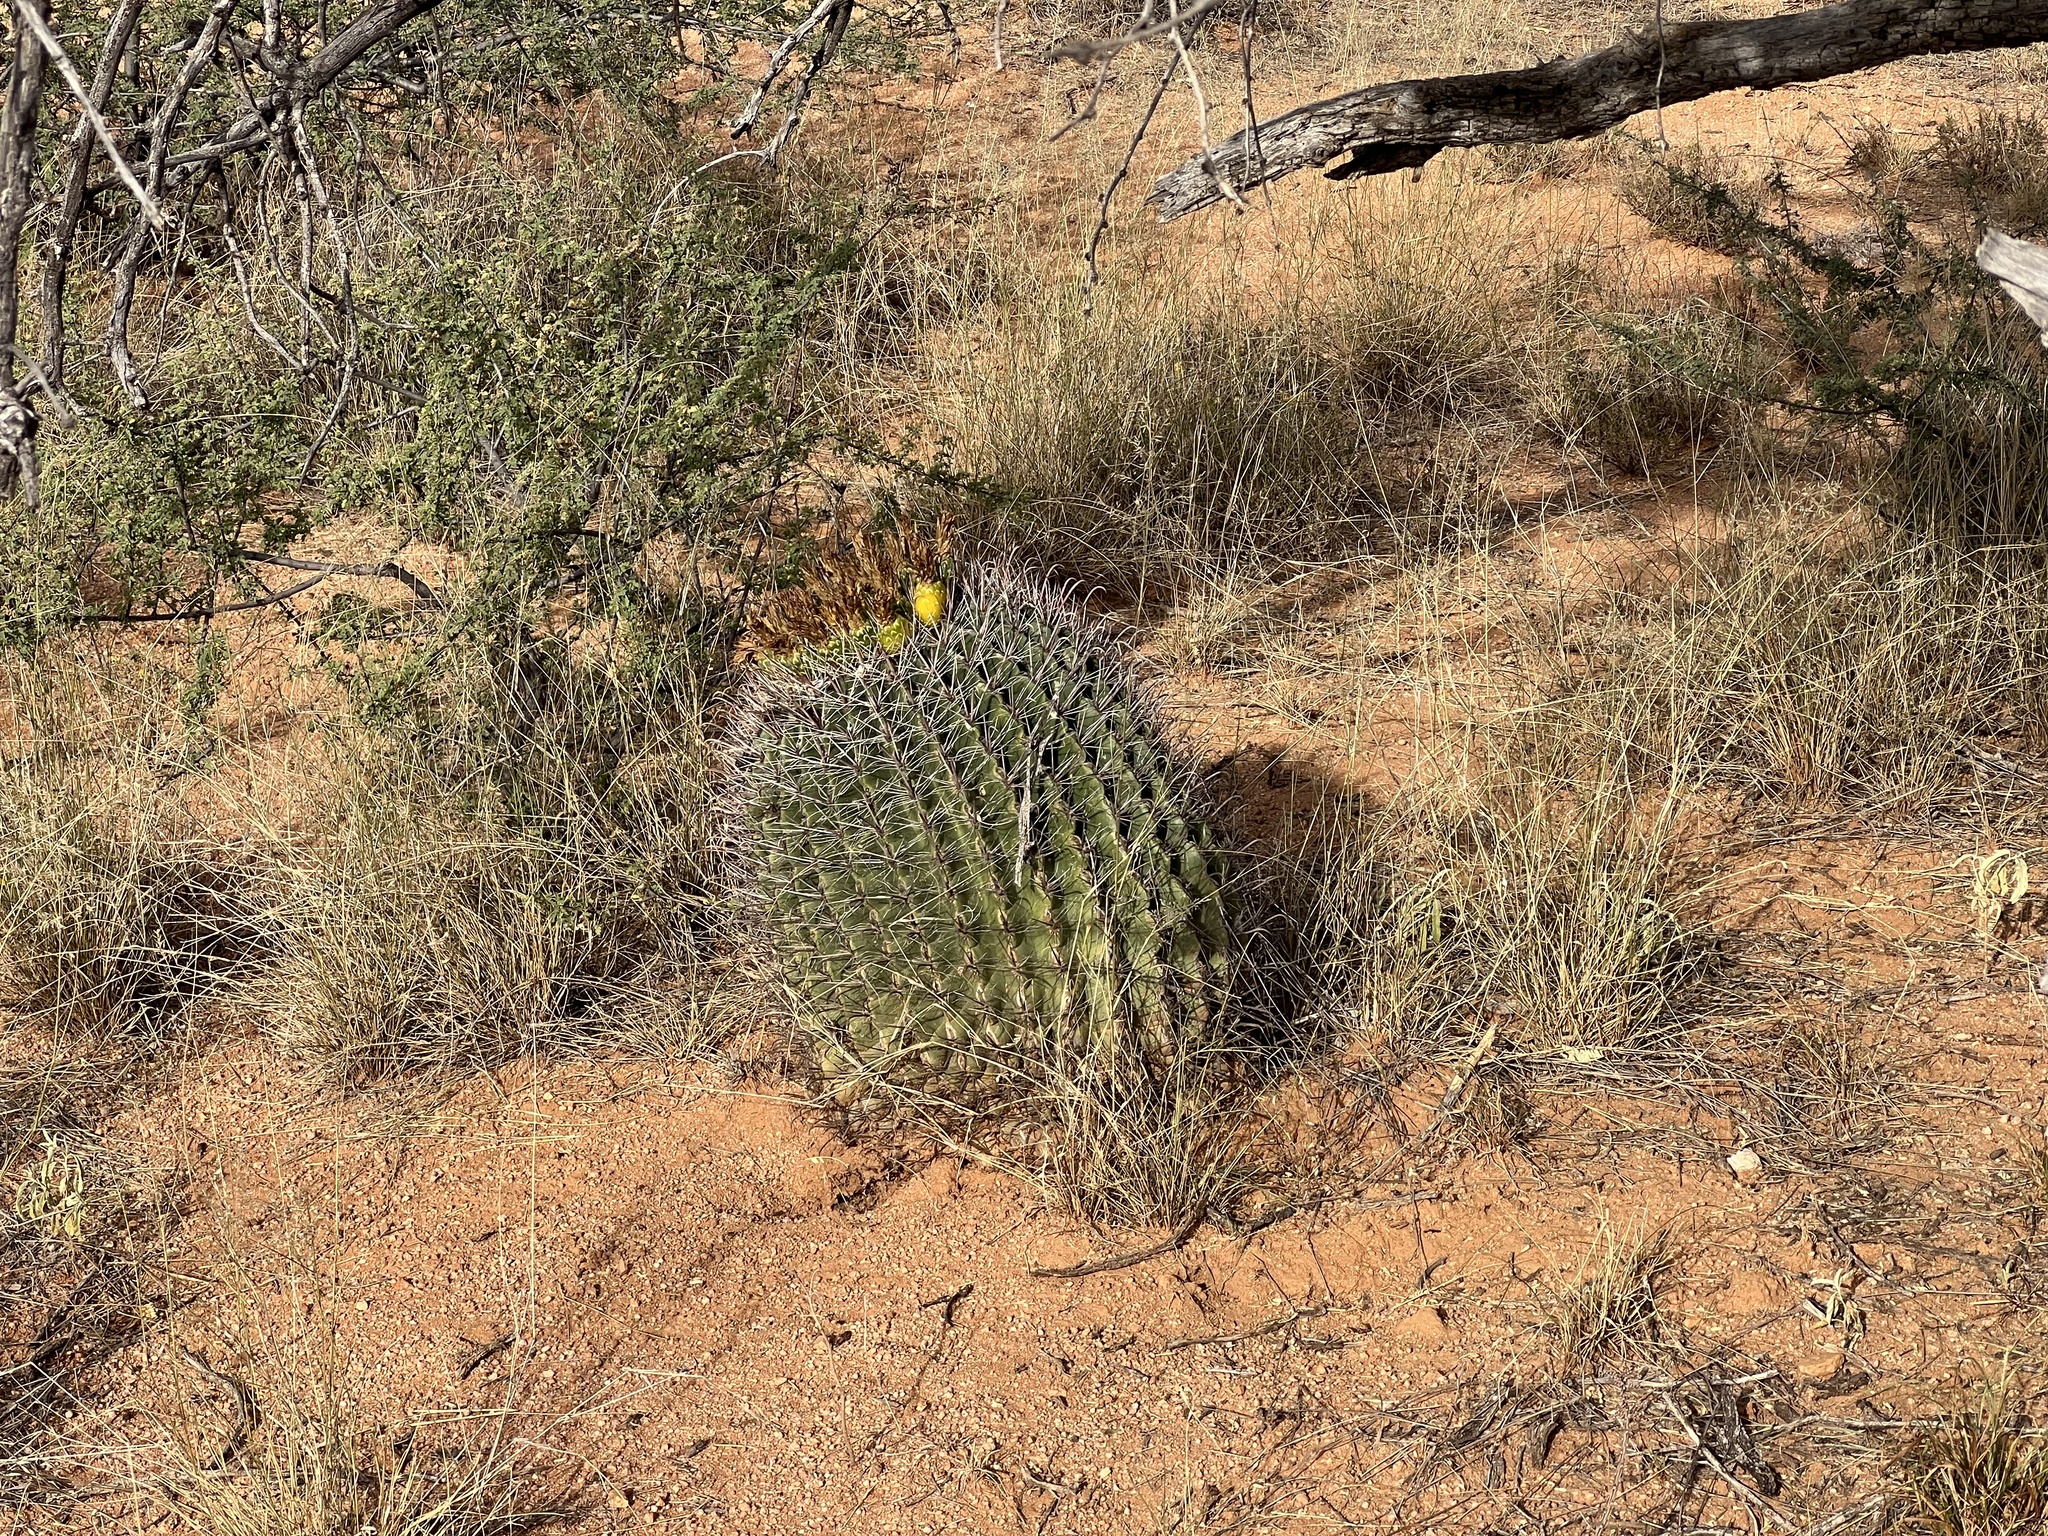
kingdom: Plantae
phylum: Tracheophyta
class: Magnoliopsida
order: Caryophyllales
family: Cactaceae
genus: Ferocactus
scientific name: Ferocactus wislizeni
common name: Candy barrel cactus
